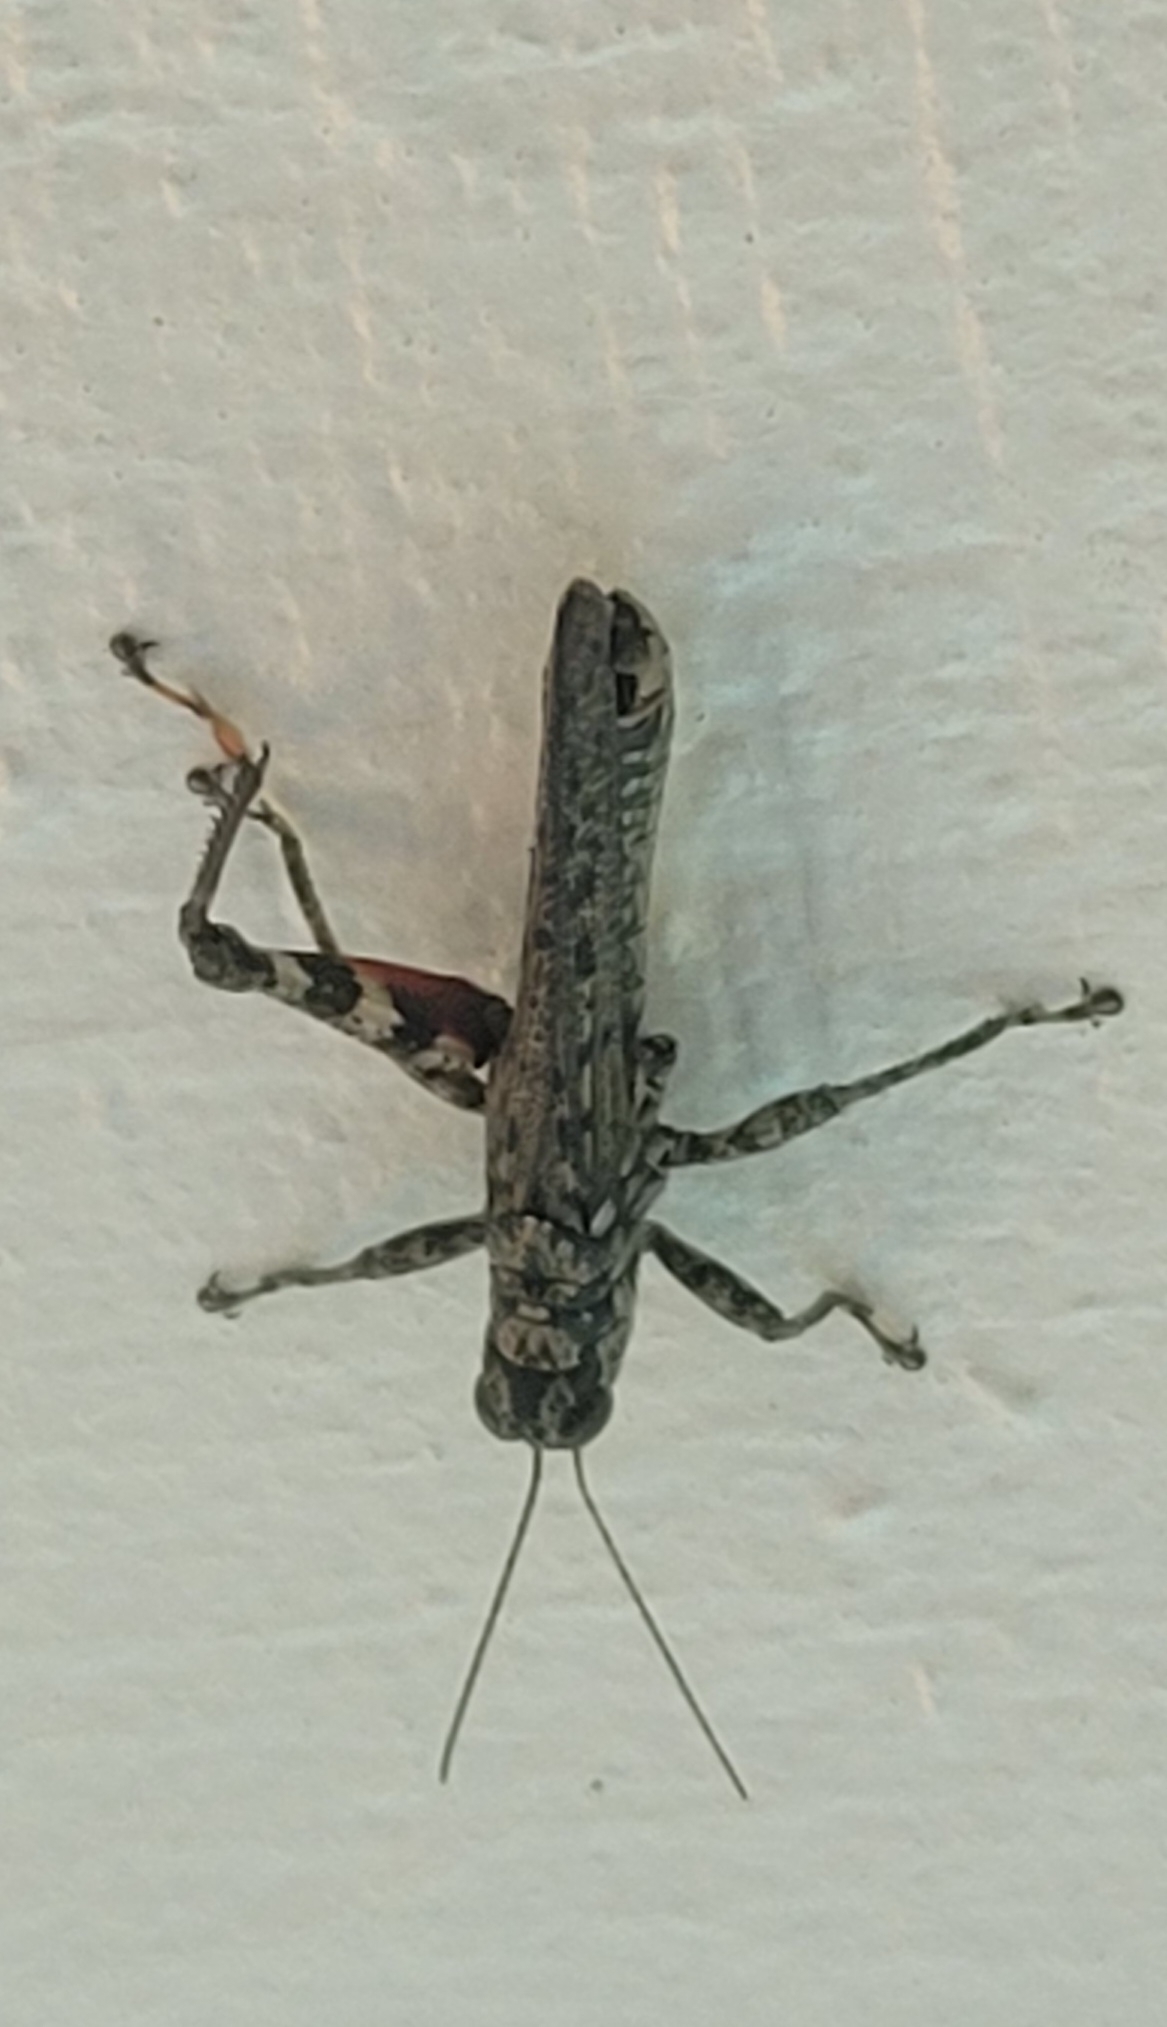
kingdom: Animalia
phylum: Arthropoda
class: Insecta
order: Orthoptera
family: Acrididae
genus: Melanoplus
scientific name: Melanoplus punctulatus
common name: Pine-tree spur-throat grasshopper
